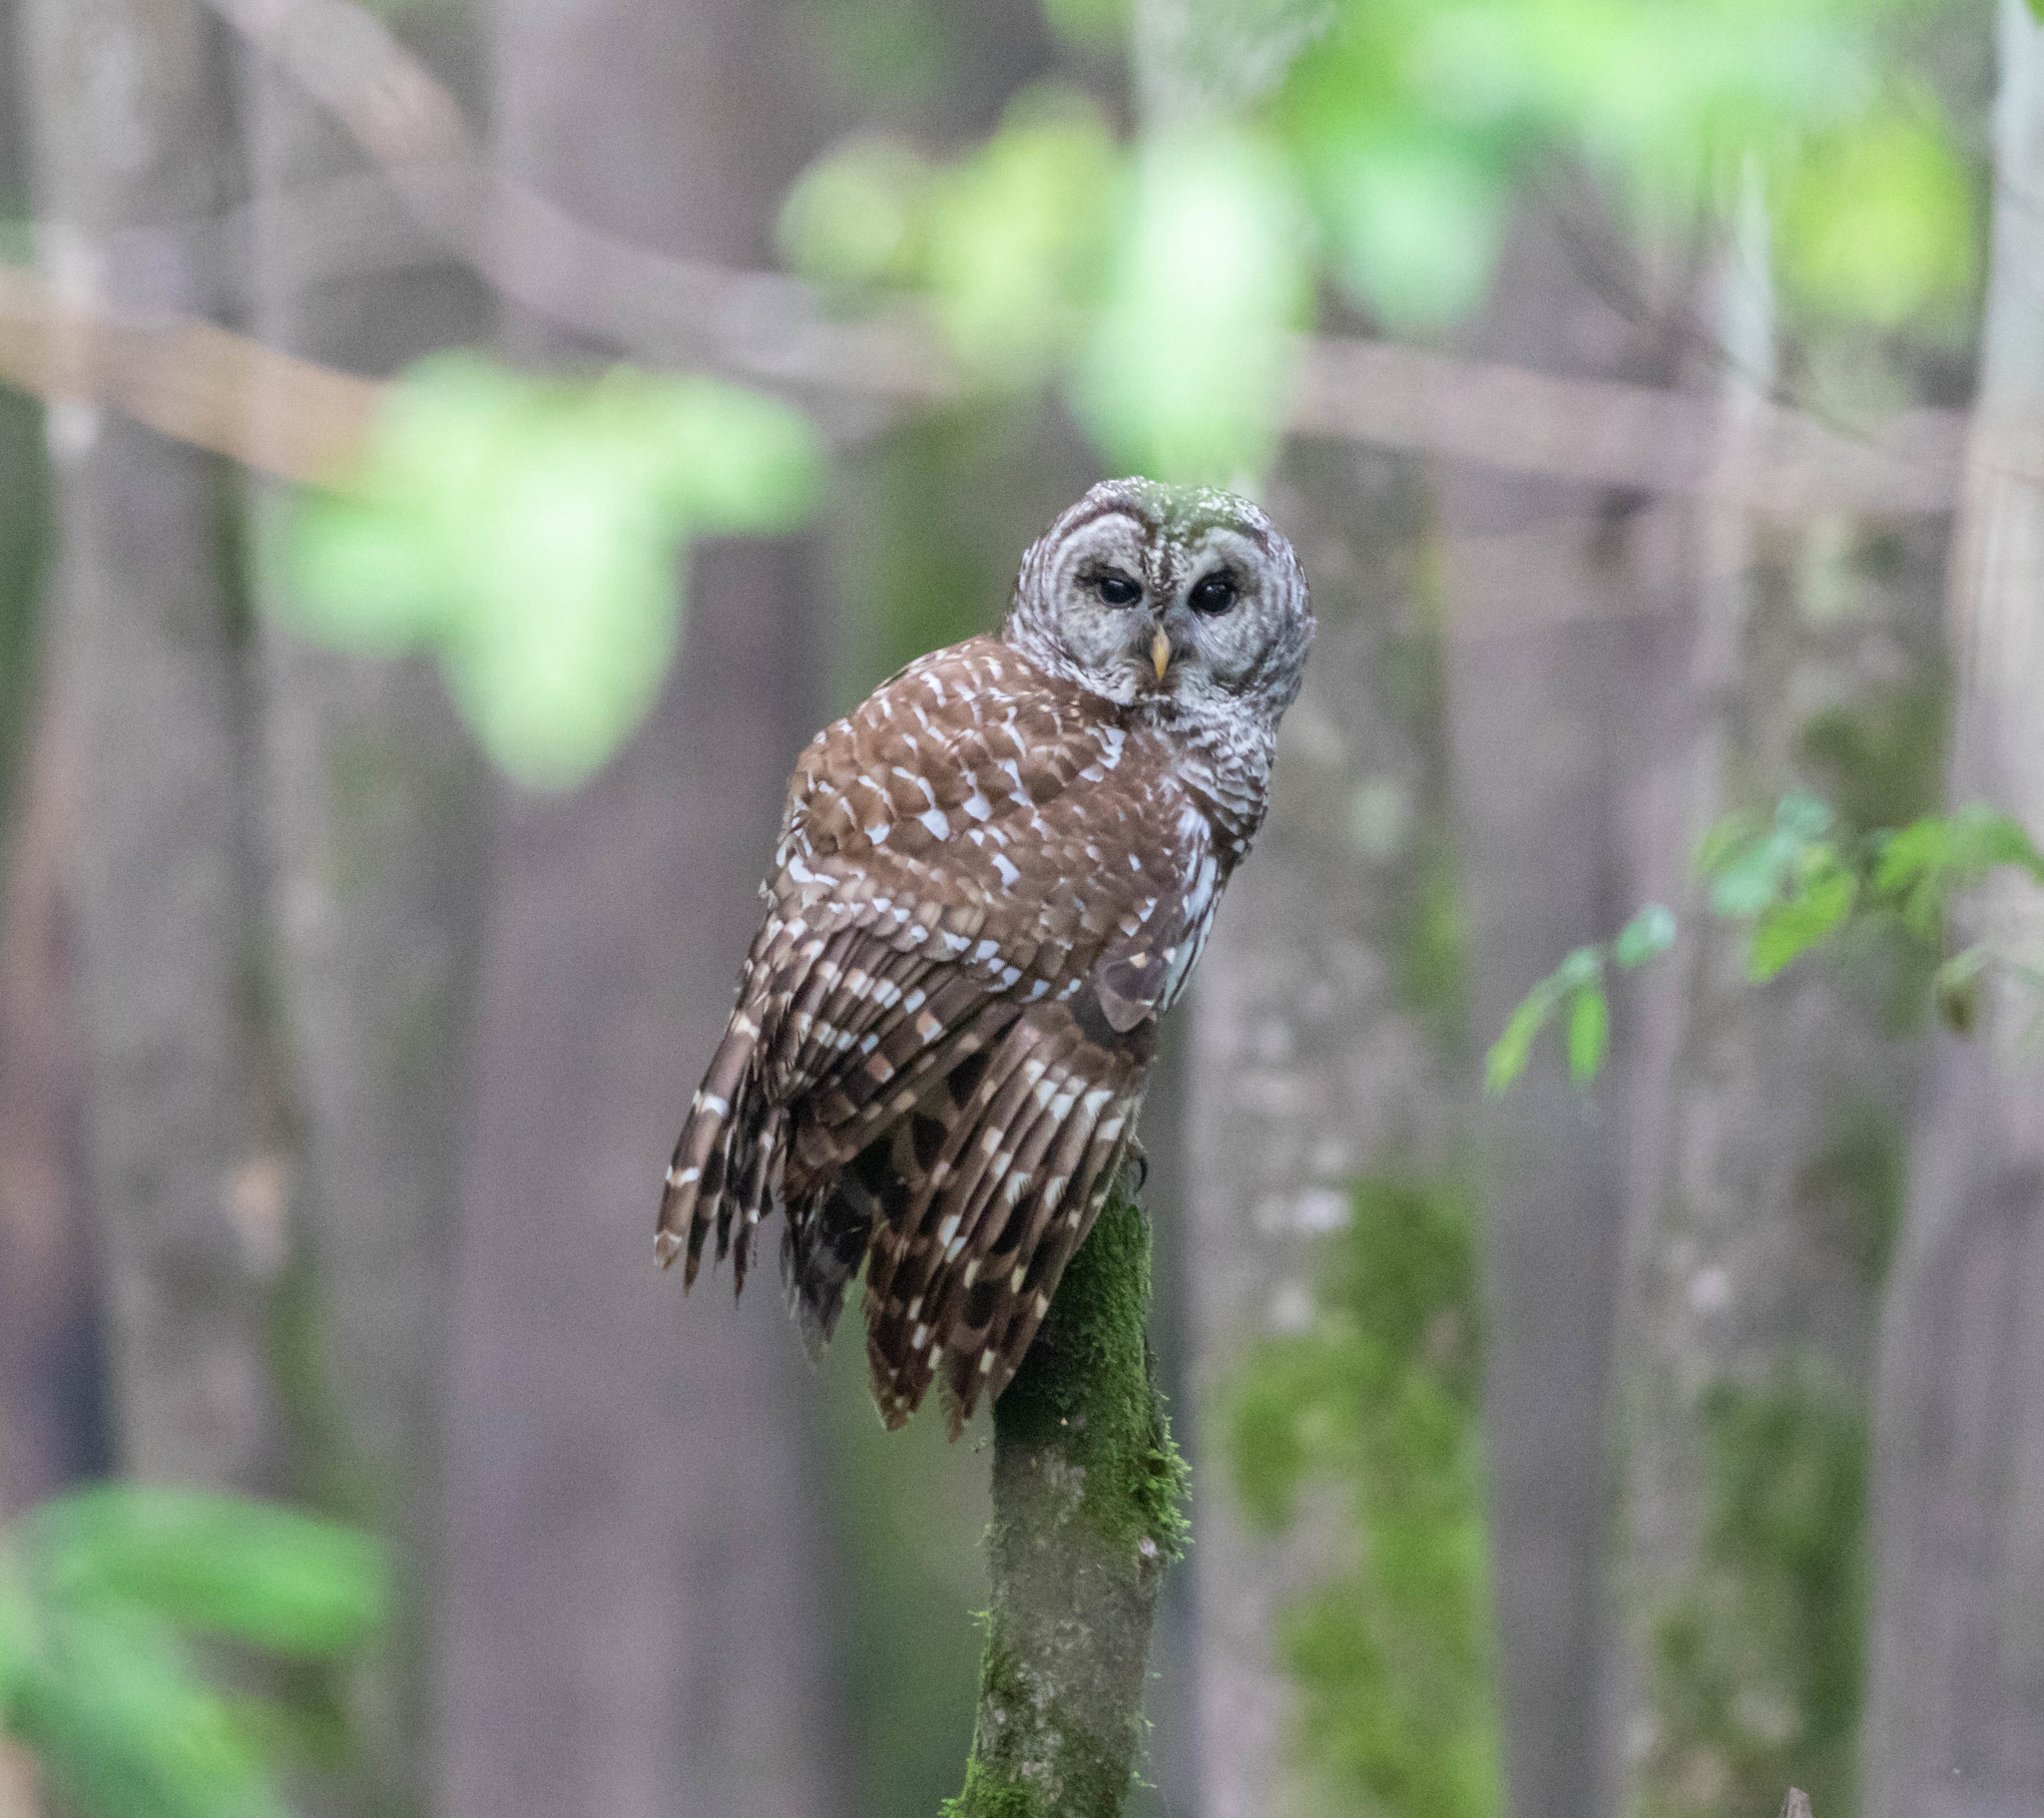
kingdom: Animalia
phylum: Chordata
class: Aves
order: Strigiformes
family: Strigidae
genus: Strix
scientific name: Strix varia
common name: Barred owl
